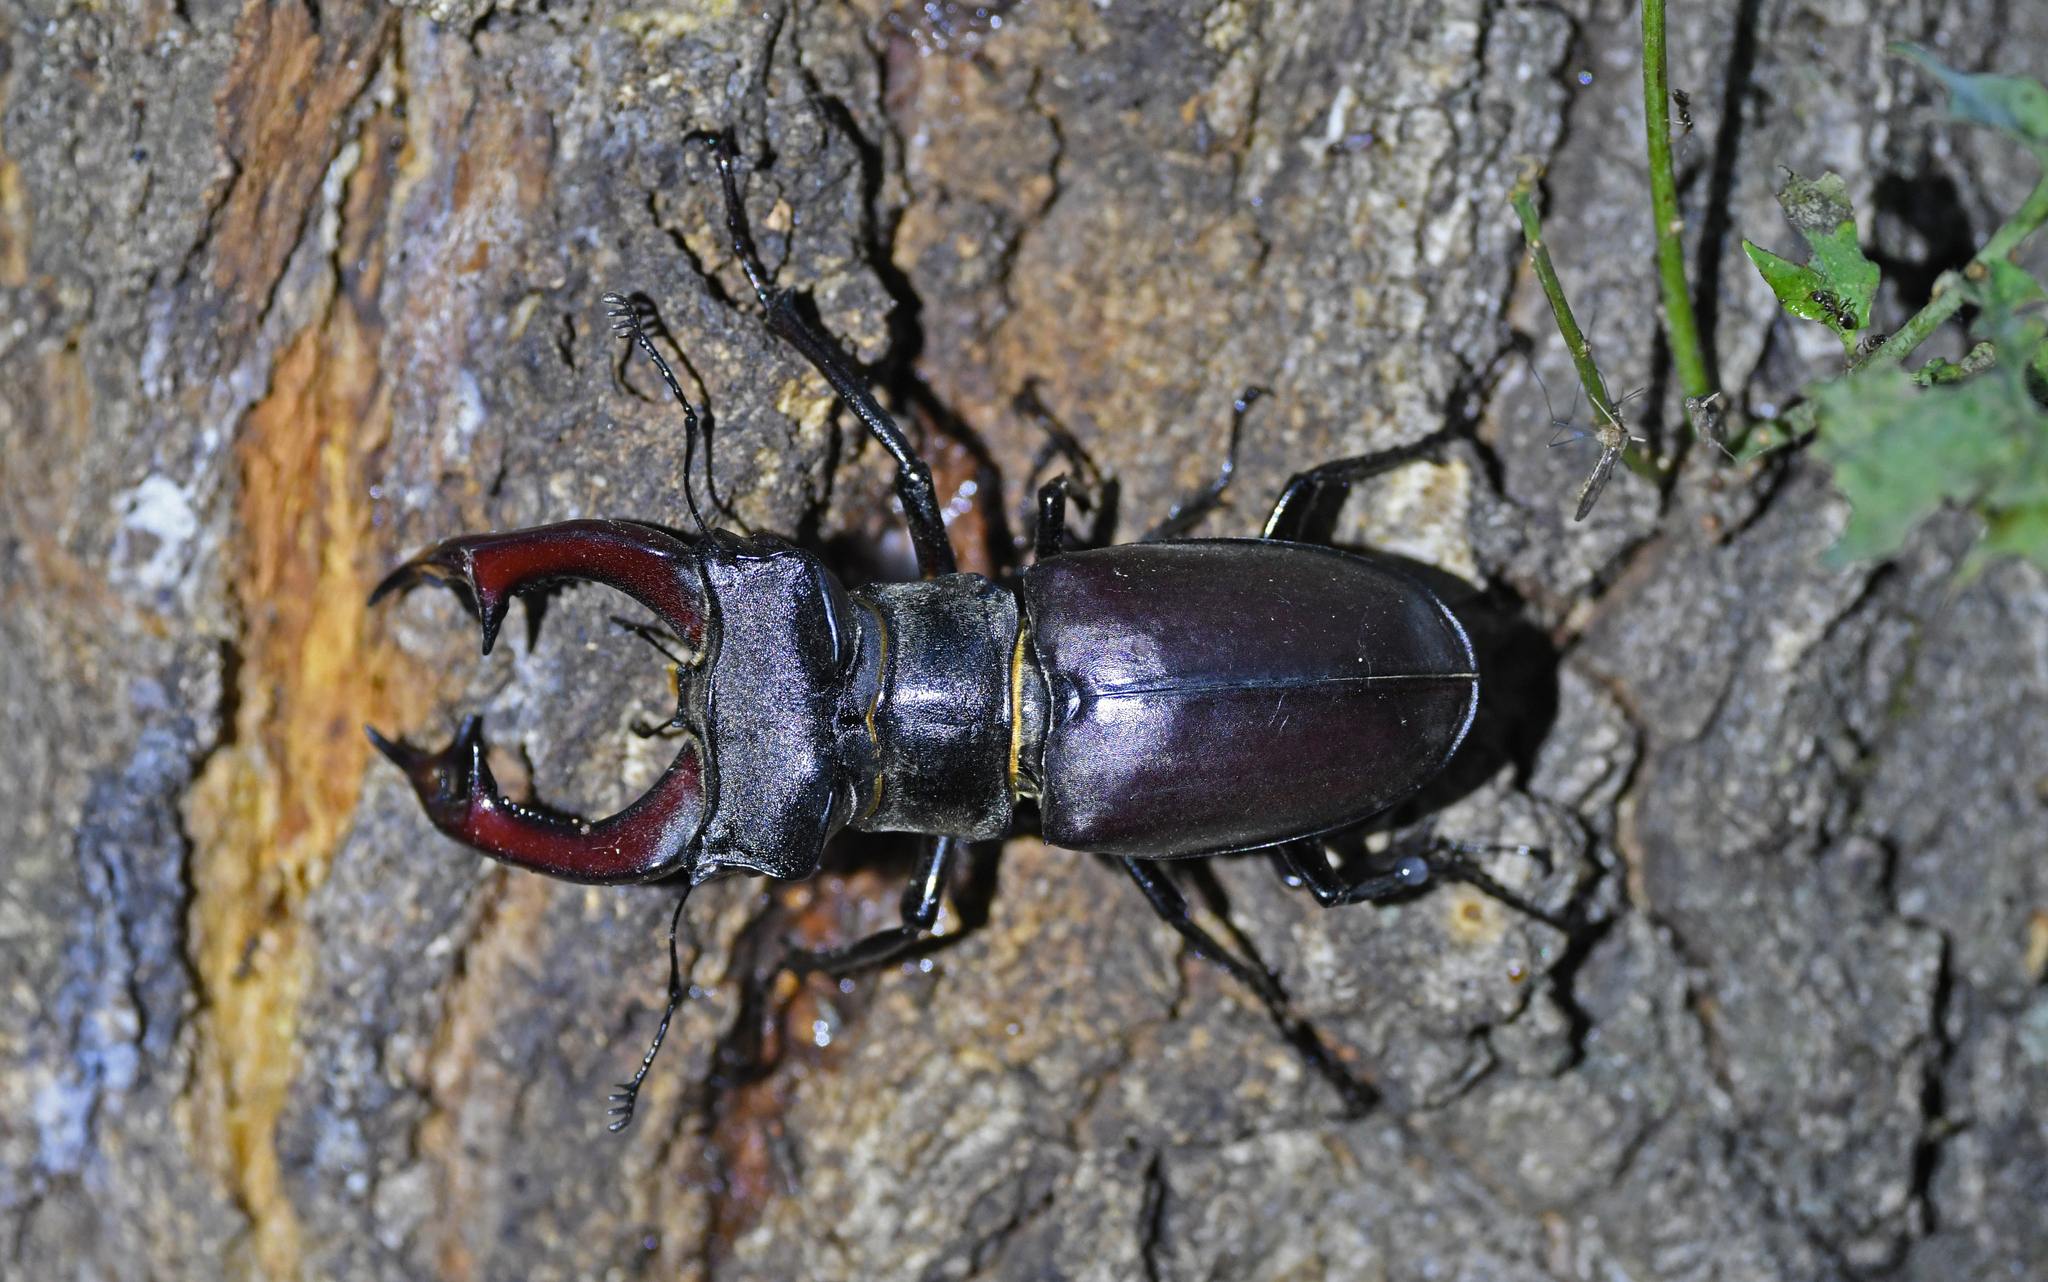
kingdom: Animalia
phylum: Arthropoda
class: Insecta
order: Coleoptera
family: Lucanidae
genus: Lucanus
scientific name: Lucanus cervus
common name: Stag beetle
